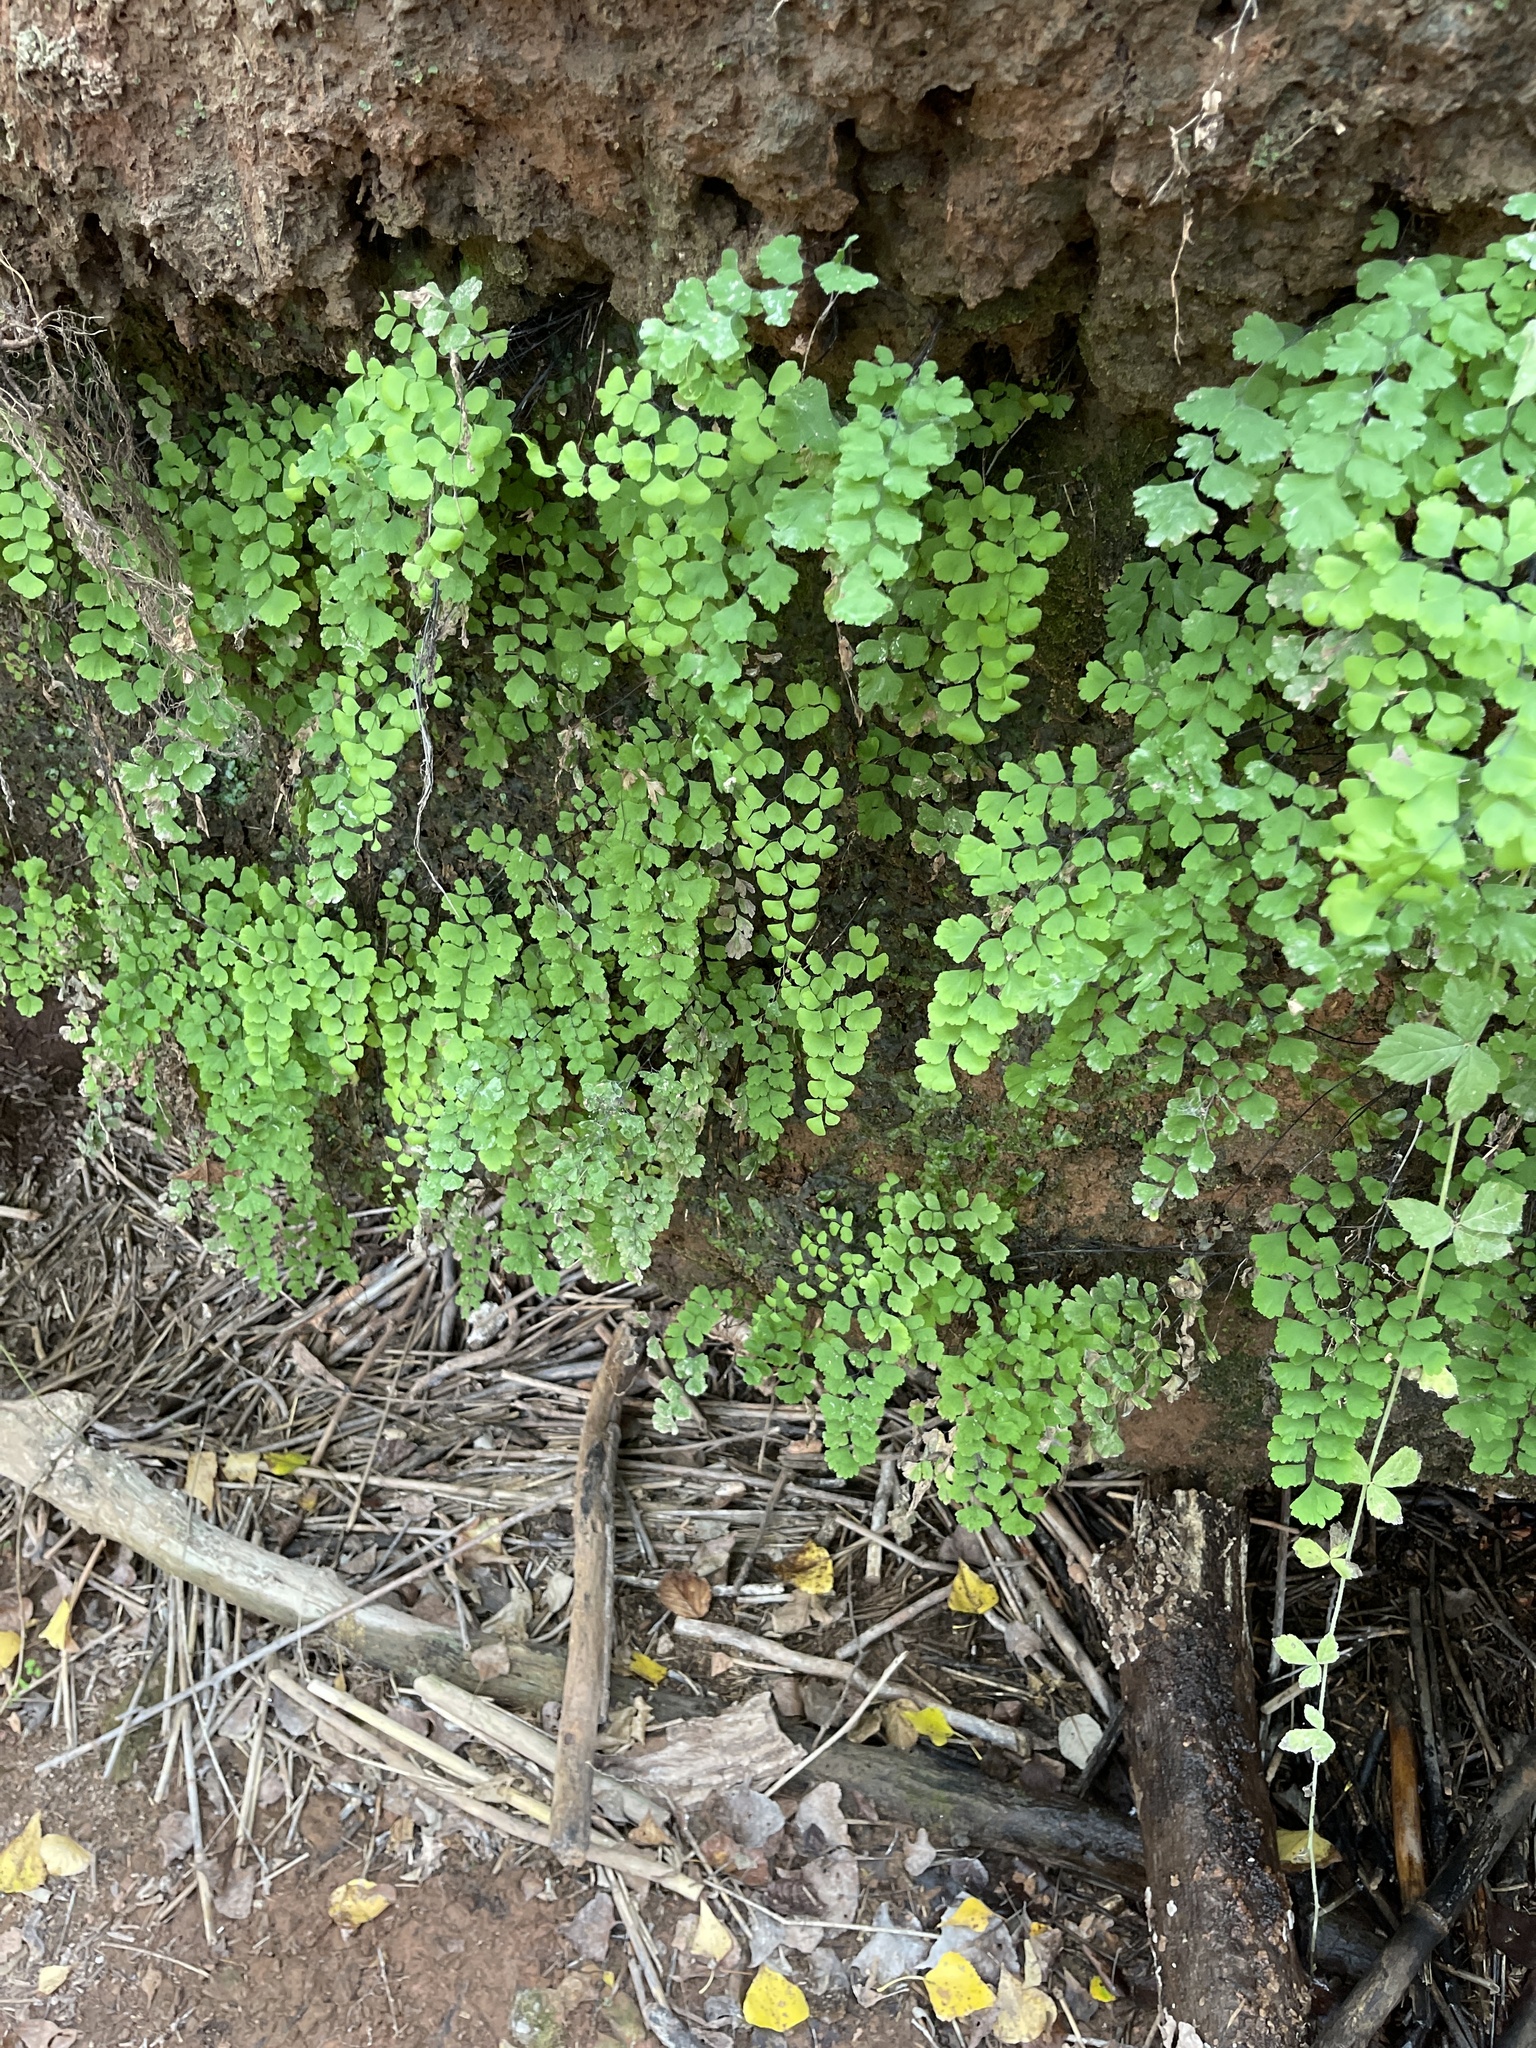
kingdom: Plantae
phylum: Tracheophyta
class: Polypodiopsida
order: Polypodiales
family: Pteridaceae
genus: Adiantum
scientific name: Adiantum capillus-veneris
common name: Maidenhair fern
